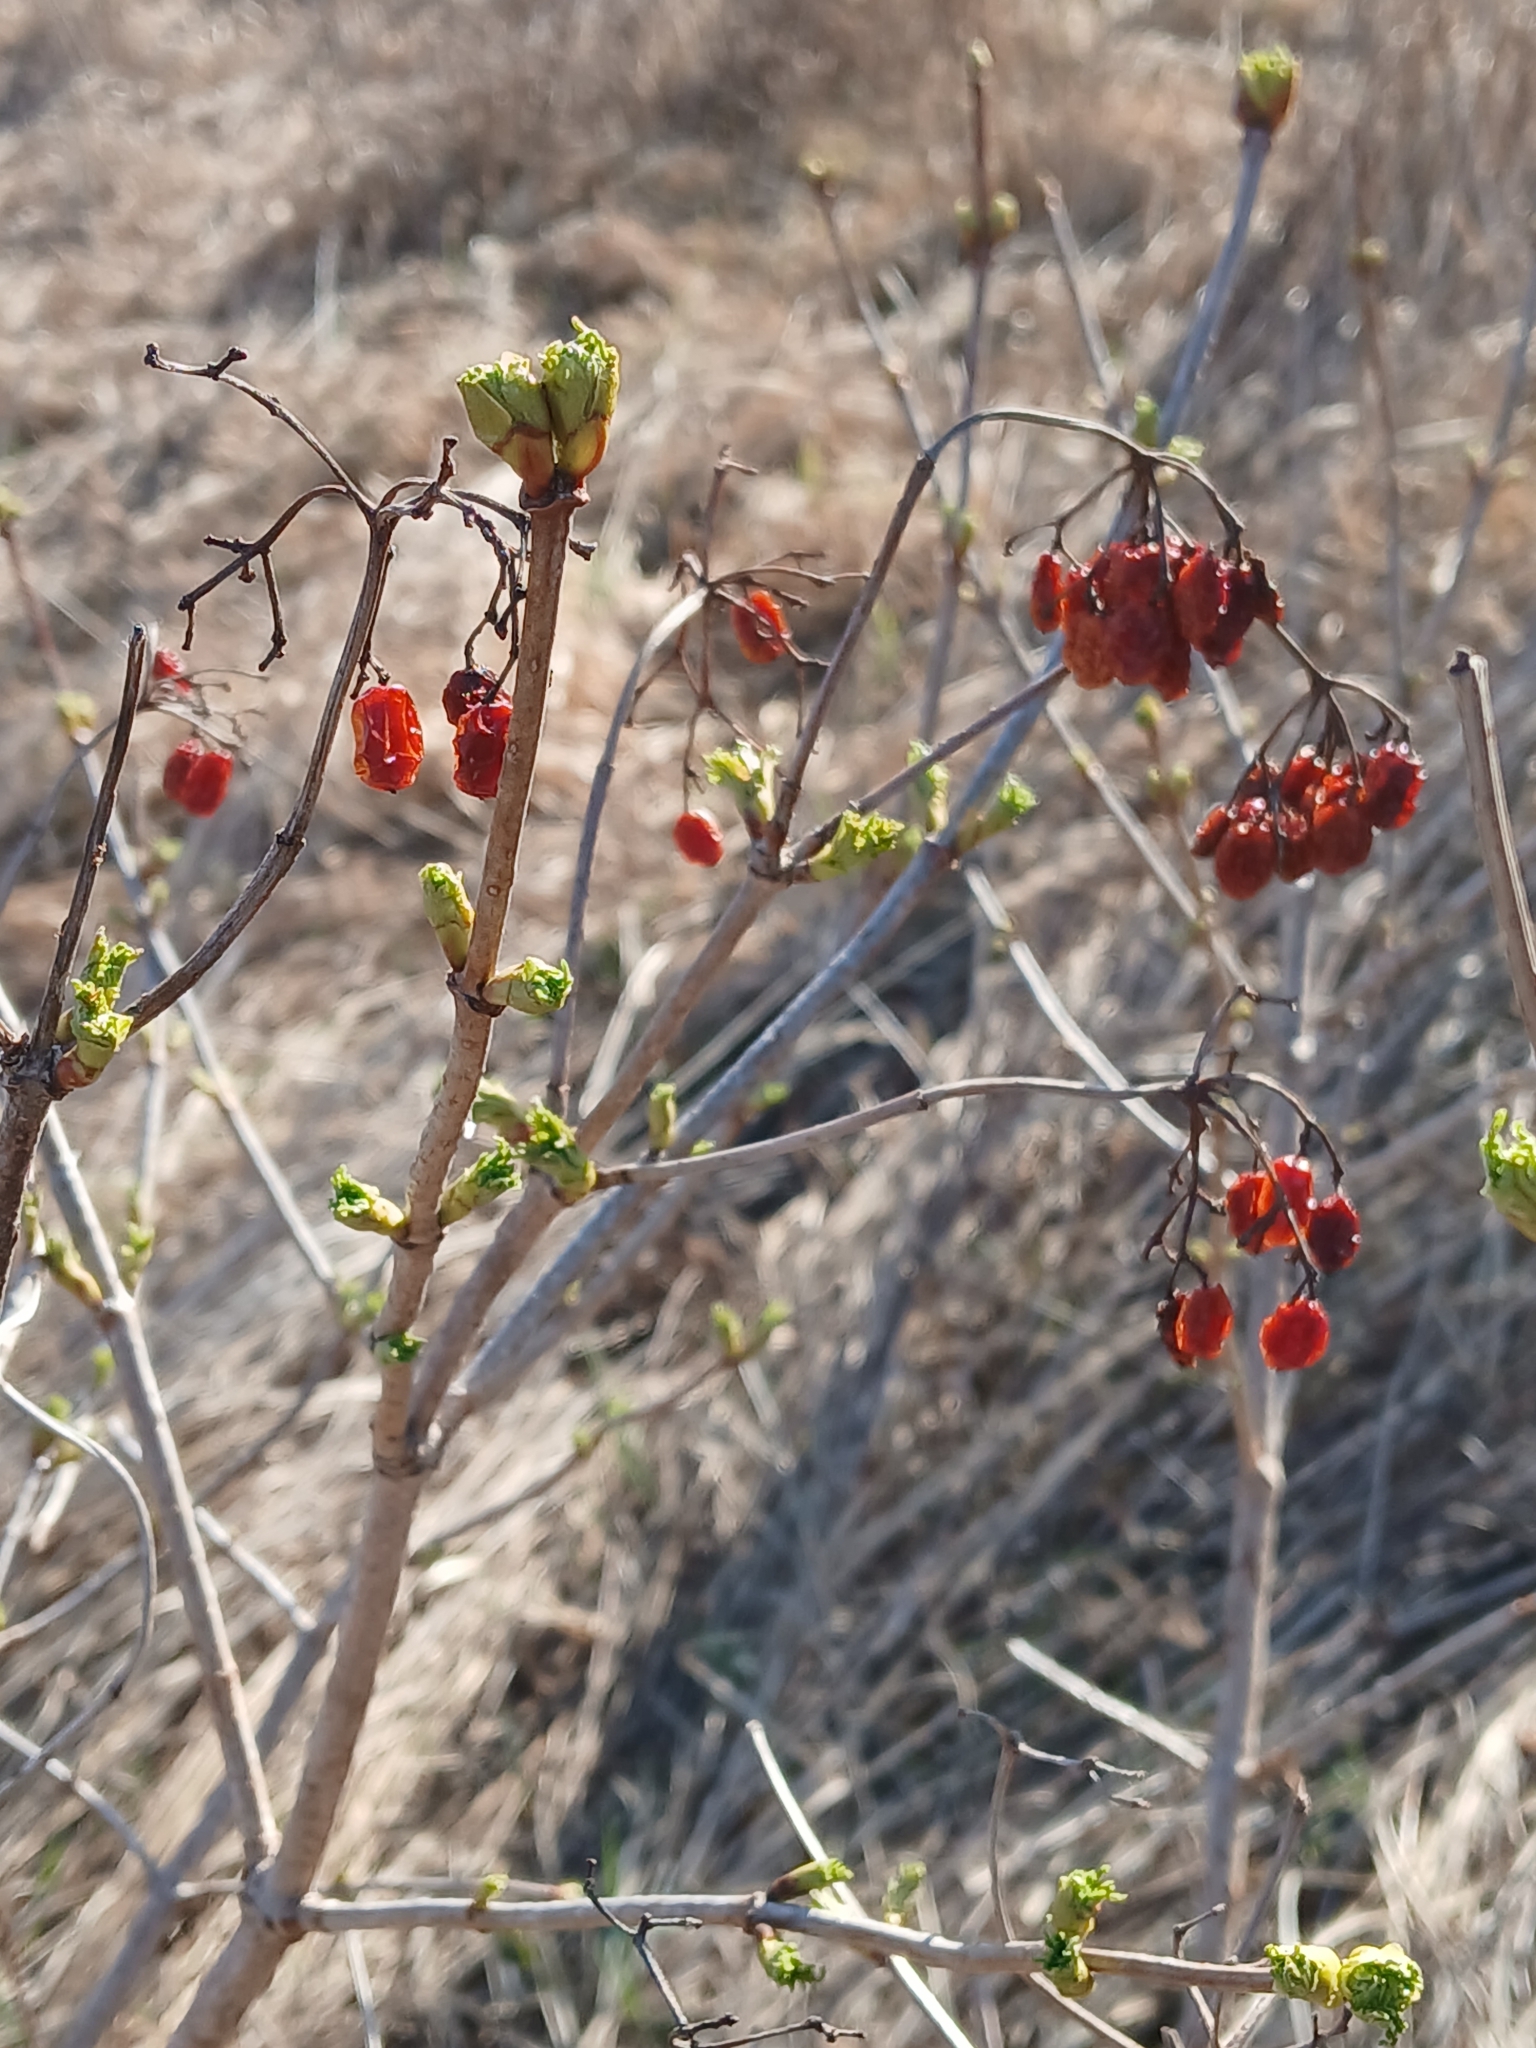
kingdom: Plantae
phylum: Tracheophyta
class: Magnoliopsida
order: Dipsacales
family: Viburnaceae
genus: Viburnum
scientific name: Viburnum opulus
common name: Guelder-rose
